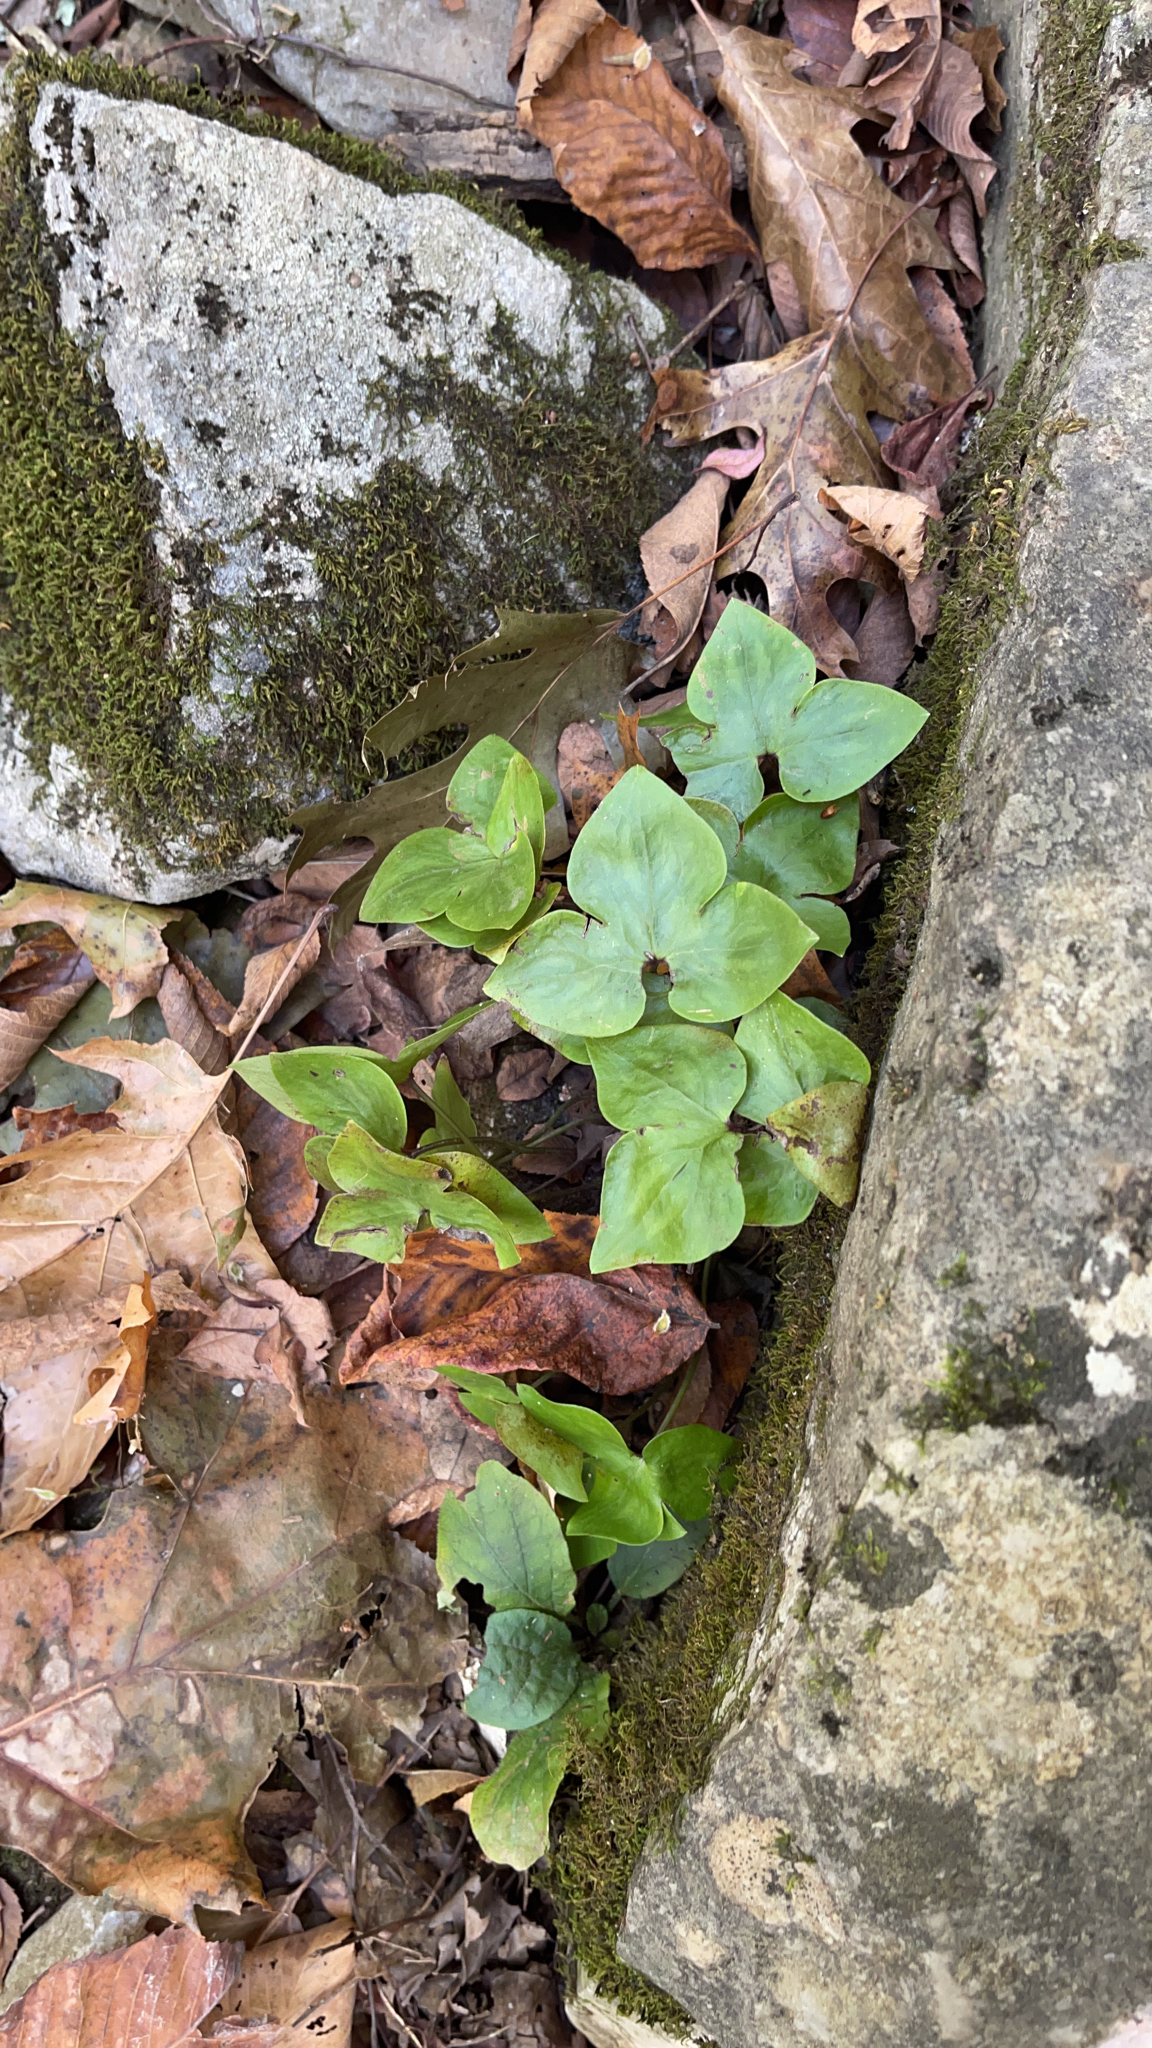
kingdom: Plantae
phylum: Tracheophyta
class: Magnoliopsida
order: Ranunculales
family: Ranunculaceae
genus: Hepatica
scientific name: Hepatica acutiloba
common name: Sharp-lobed hepatica
